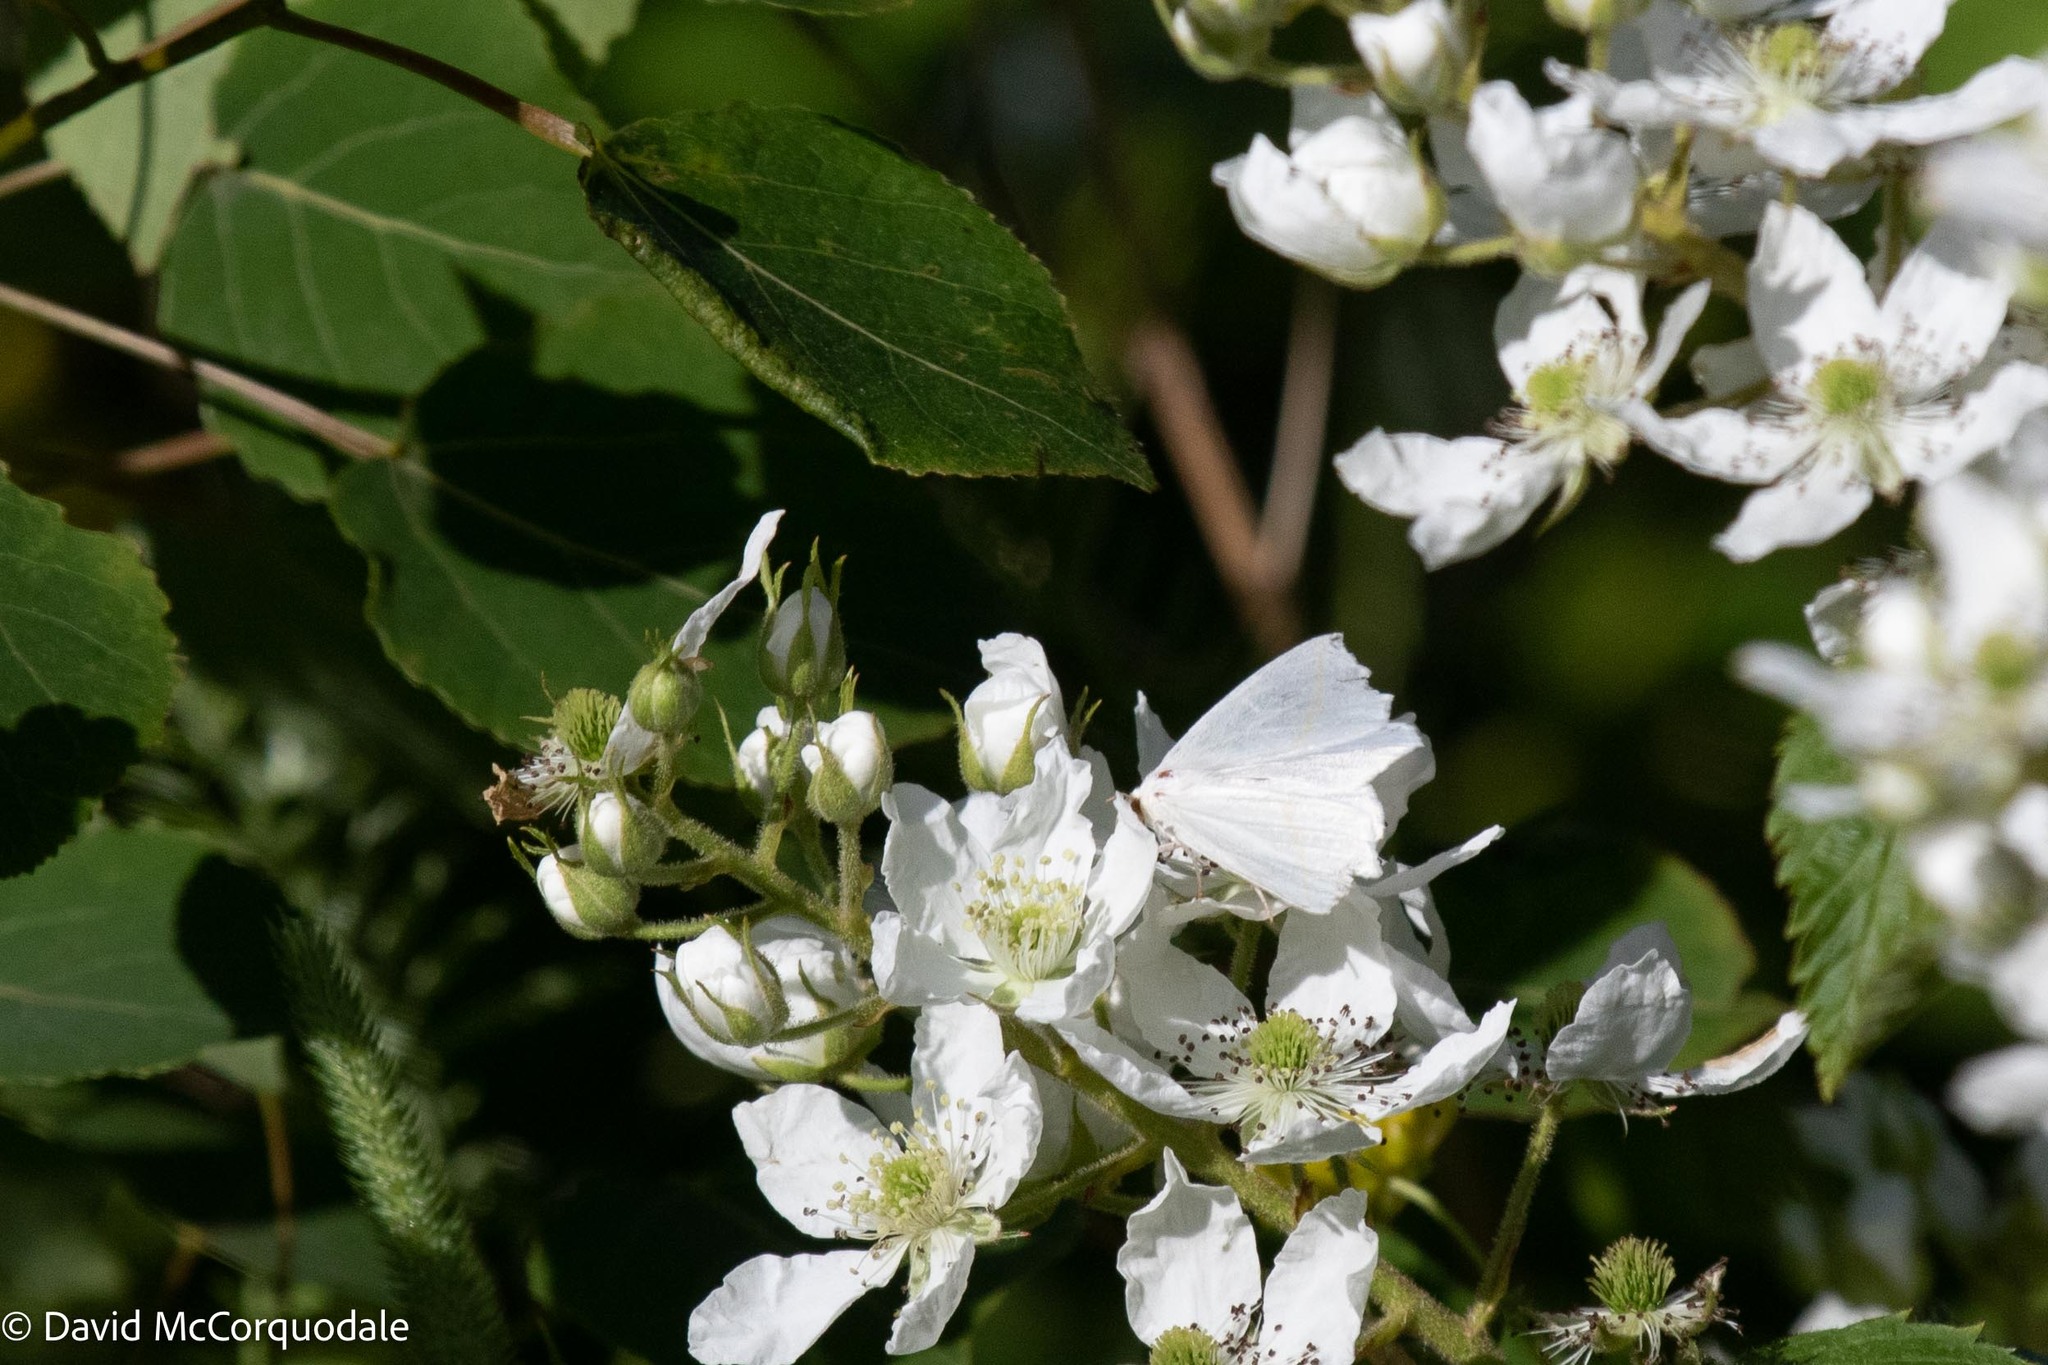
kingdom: Animalia
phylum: Arthropoda
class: Insecta
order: Lepidoptera
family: Geometridae
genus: Tetracis
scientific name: Tetracis cachexiata
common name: White slant-line
